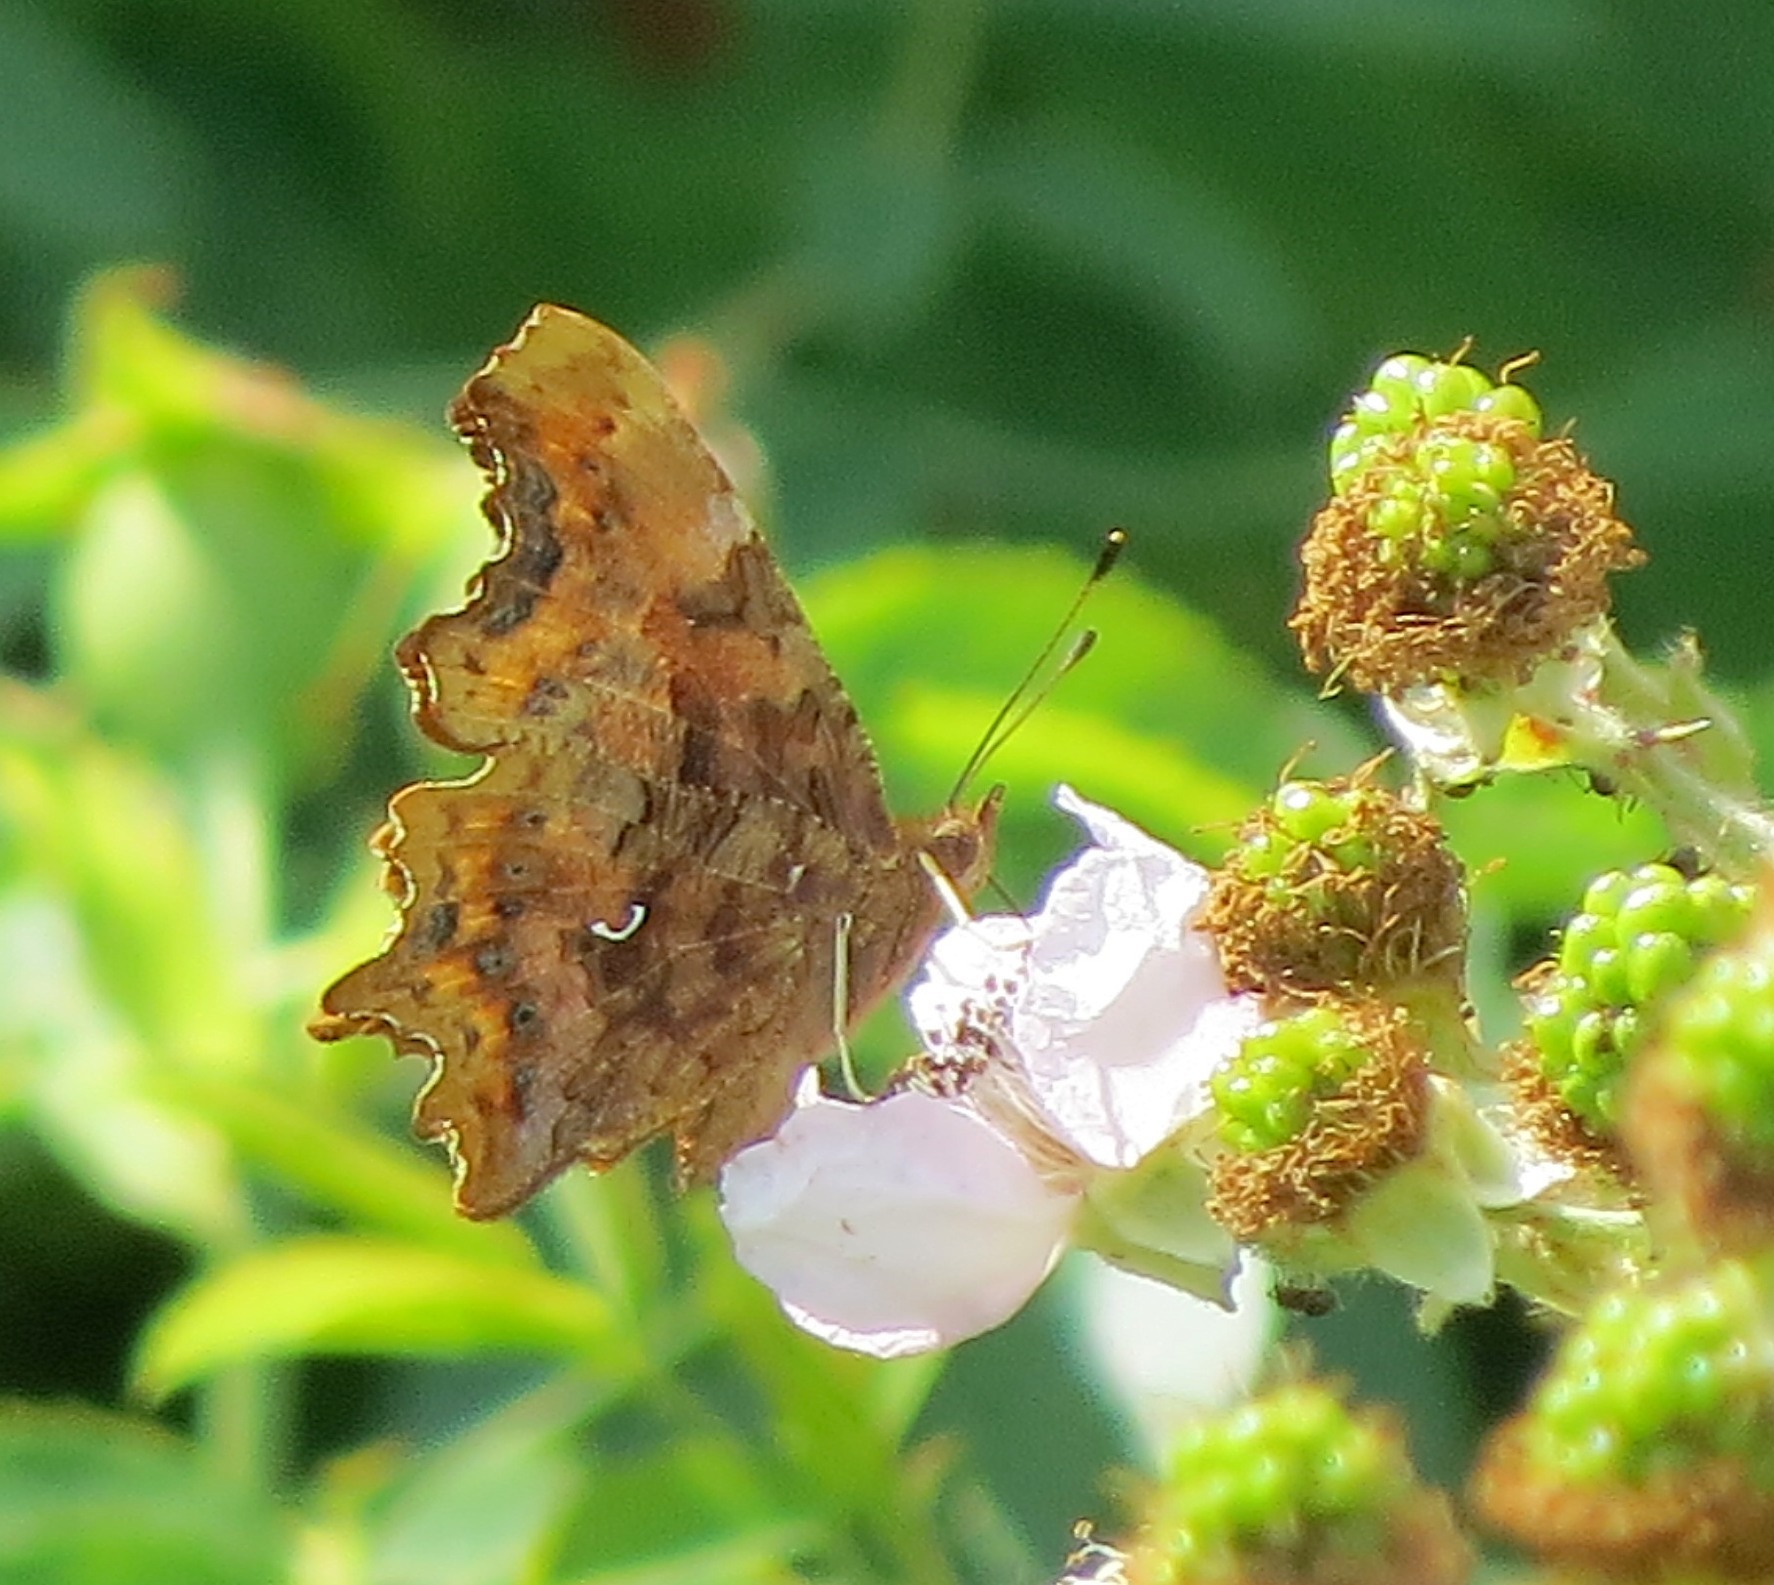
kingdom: Animalia
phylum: Arthropoda
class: Insecta
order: Lepidoptera
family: Nymphalidae
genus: Polygonia
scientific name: Polygonia c-album
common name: Comma
